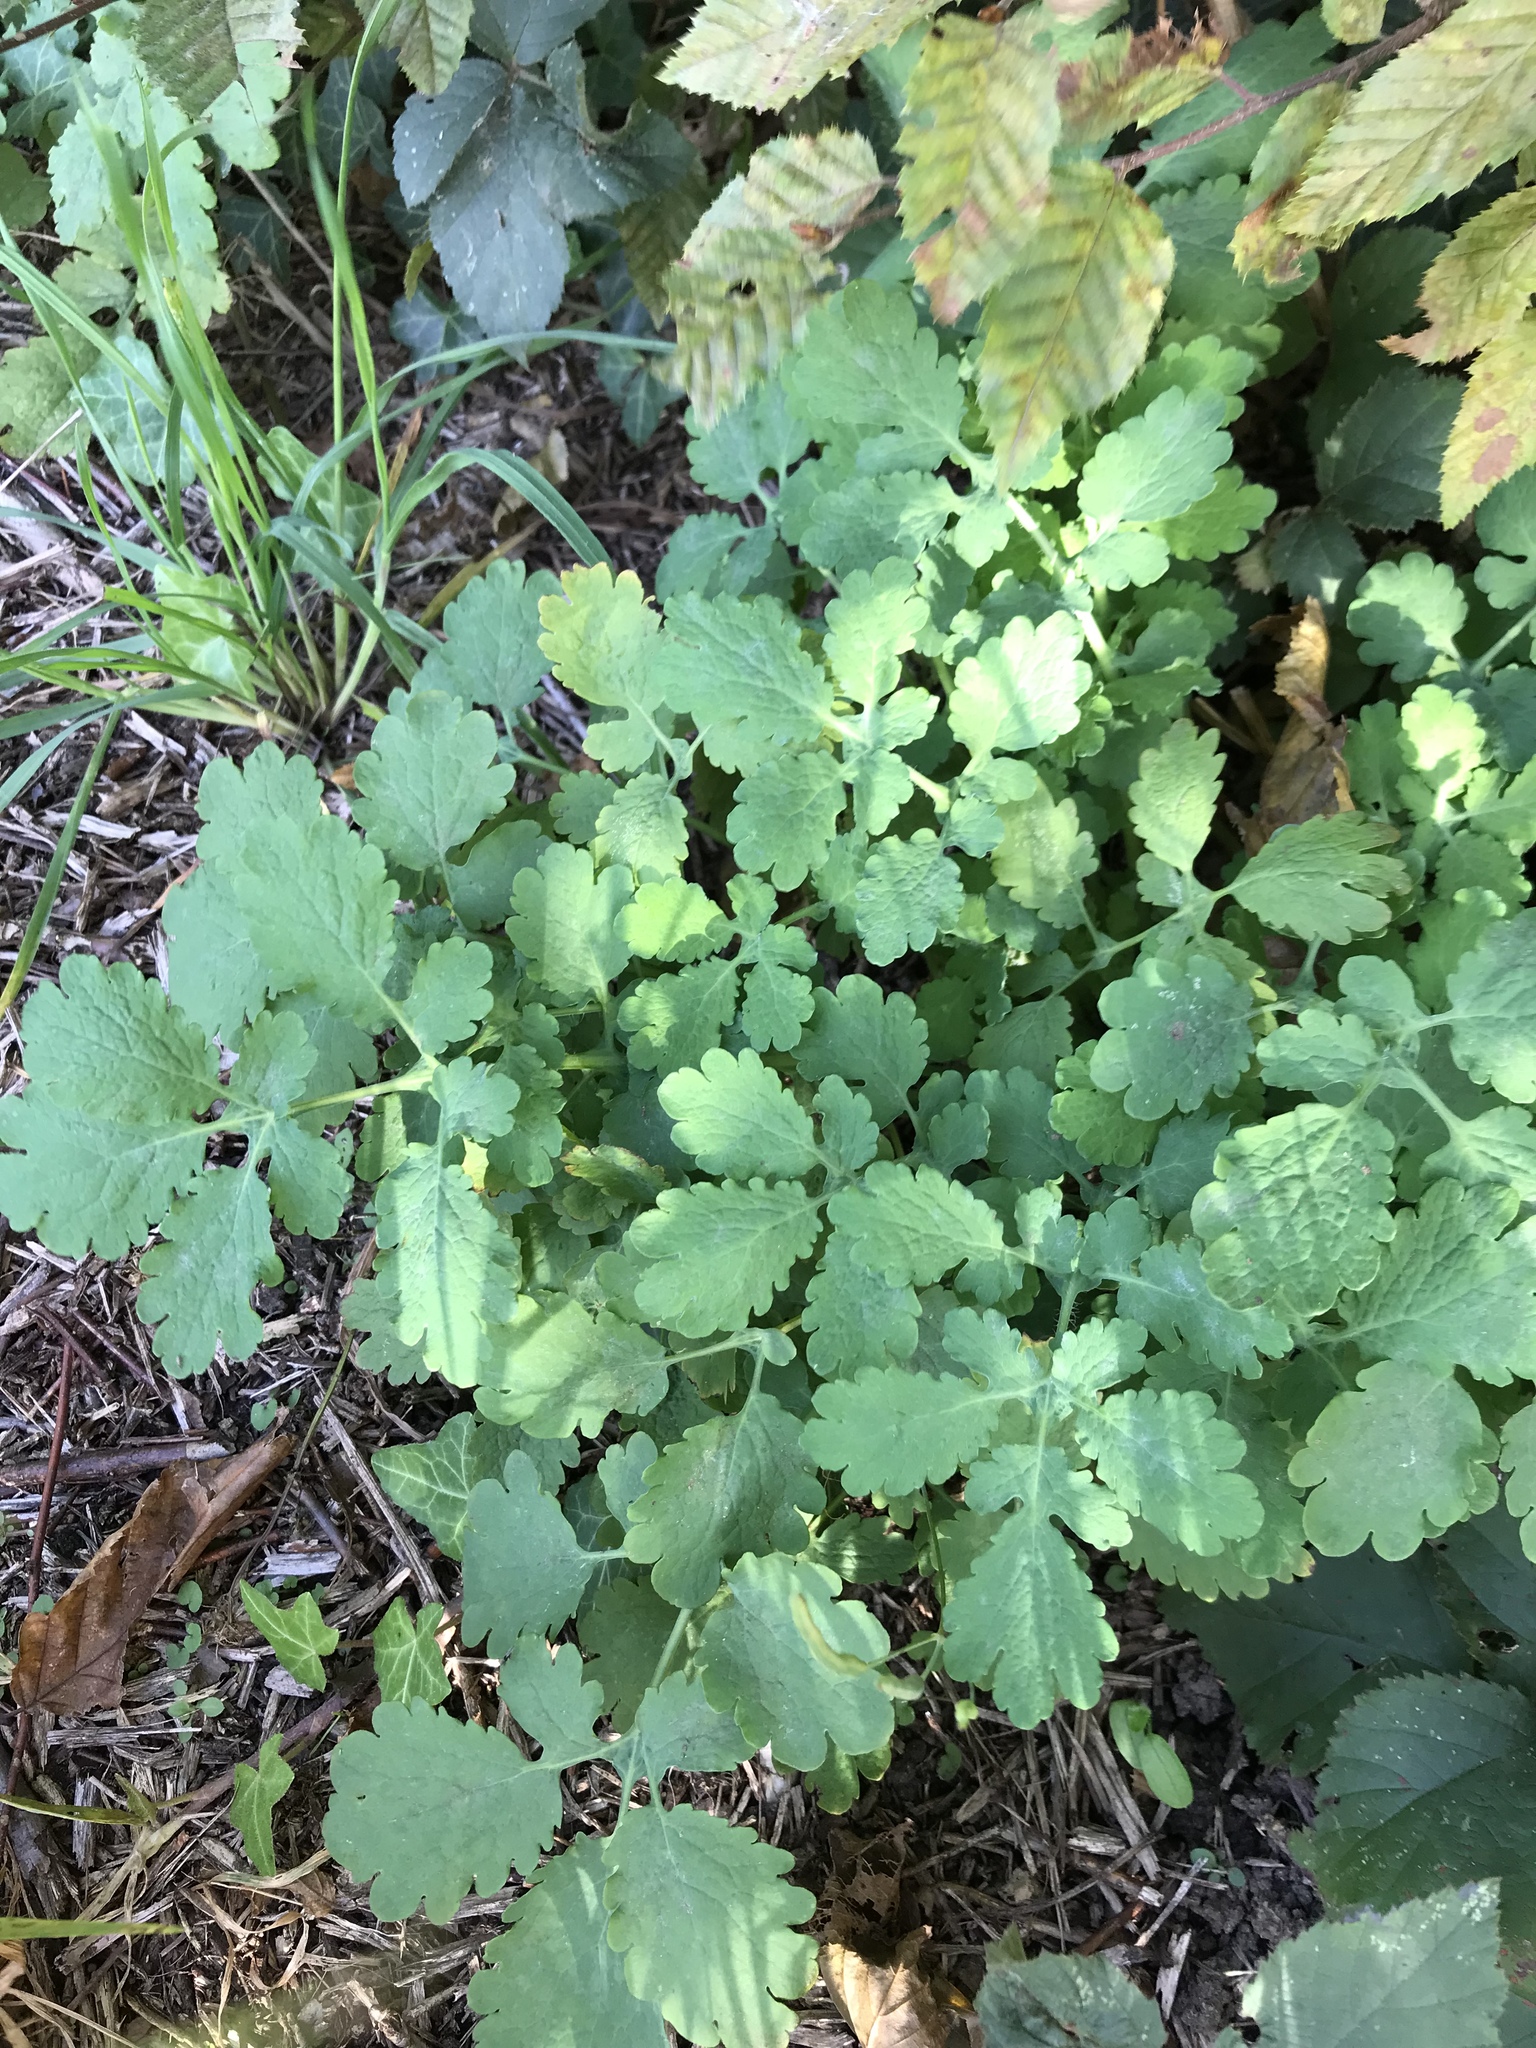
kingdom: Plantae
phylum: Tracheophyta
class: Magnoliopsida
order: Ranunculales
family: Papaveraceae
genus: Chelidonium
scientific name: Chelidonium majus
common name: Greater celandine
